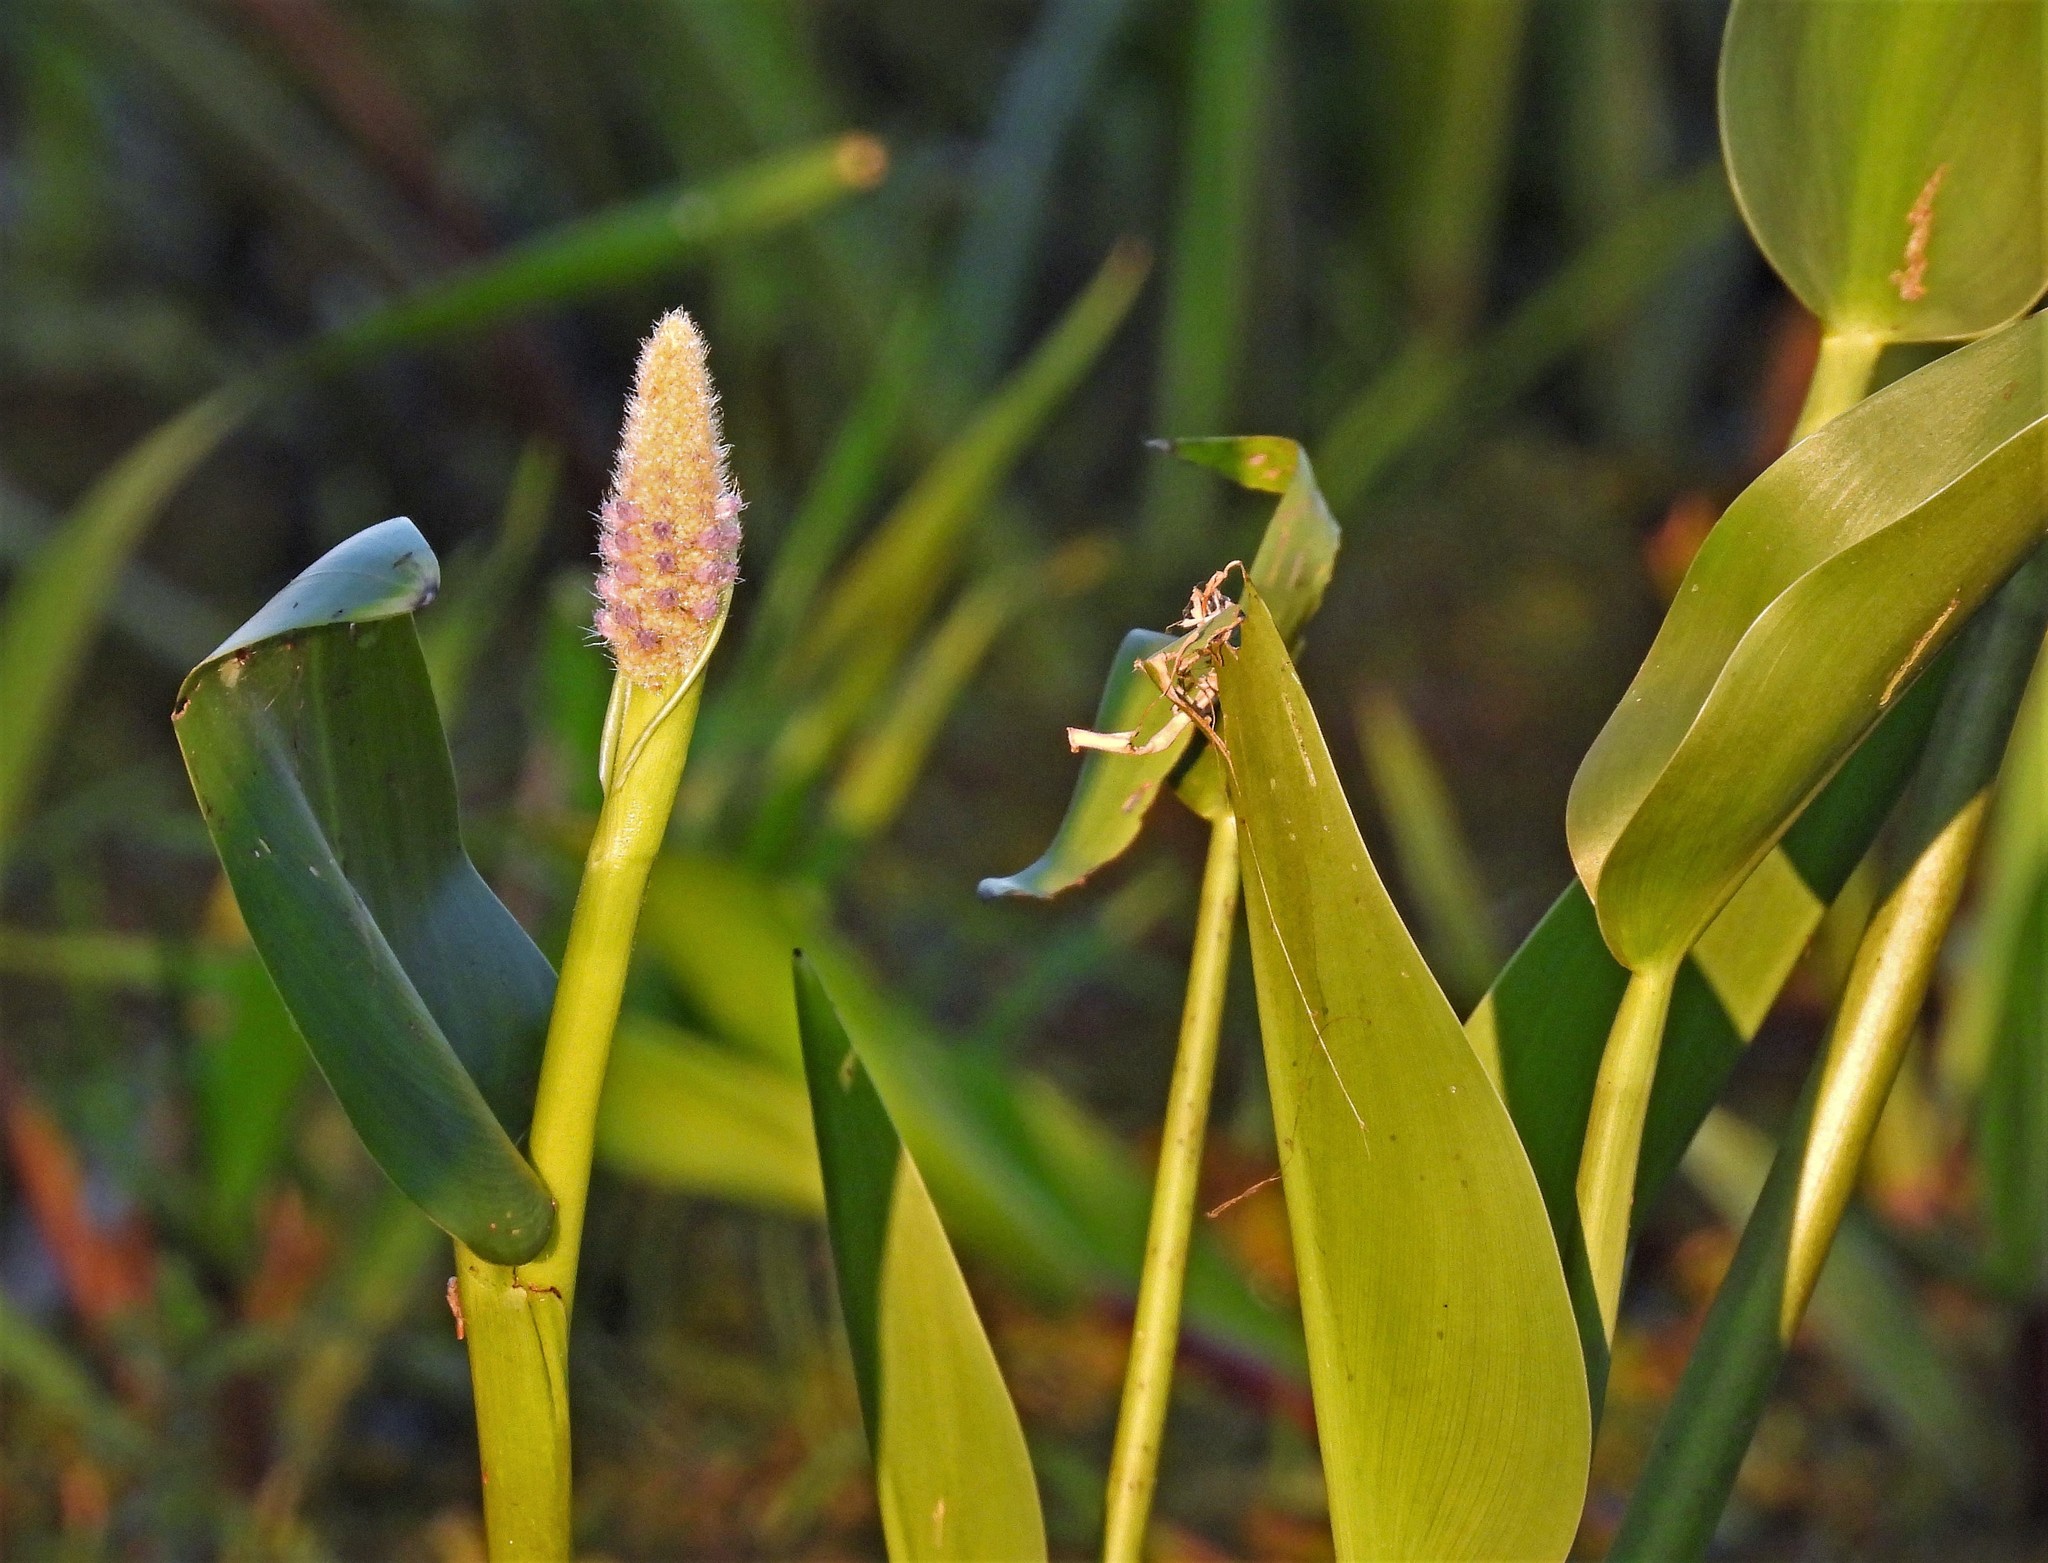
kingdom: Plantae
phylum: Tracheophyta
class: Liliopsida
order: Commelinales
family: Pontederiaceae
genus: Pontederia
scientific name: Pontederia cordata
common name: Pickerelweed
